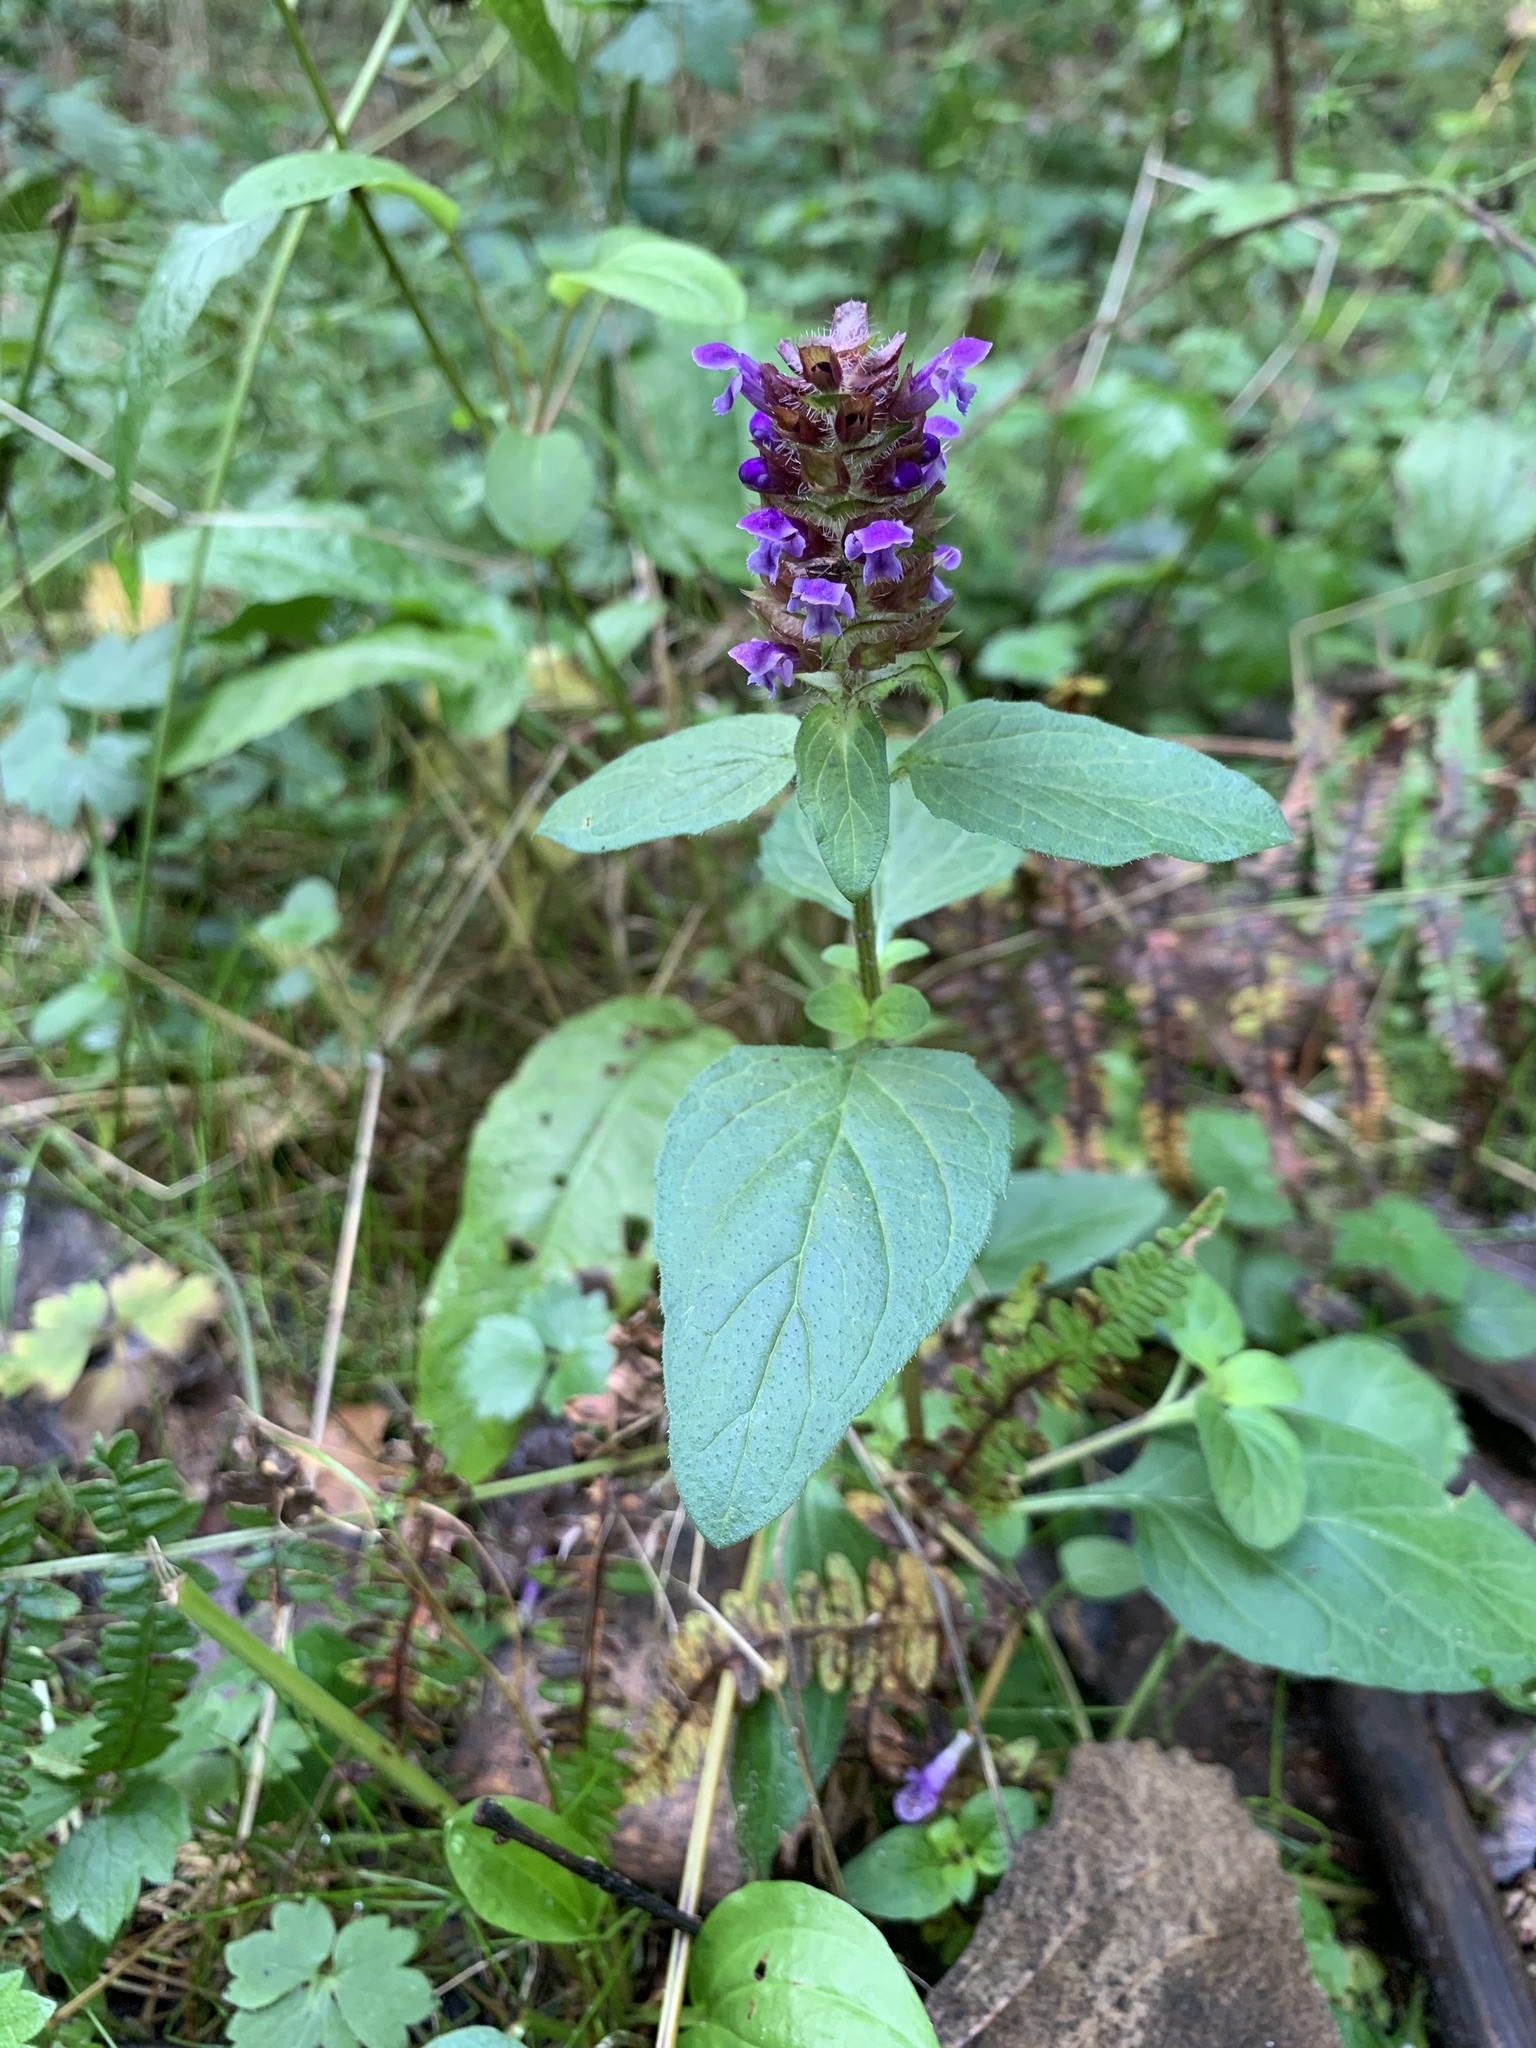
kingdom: Plantae
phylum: Tracheophyta
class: Magnoliopsida
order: Lamiales
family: Lamiaceae
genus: Prunella
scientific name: Prunella vulgaris
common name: Heal-all
